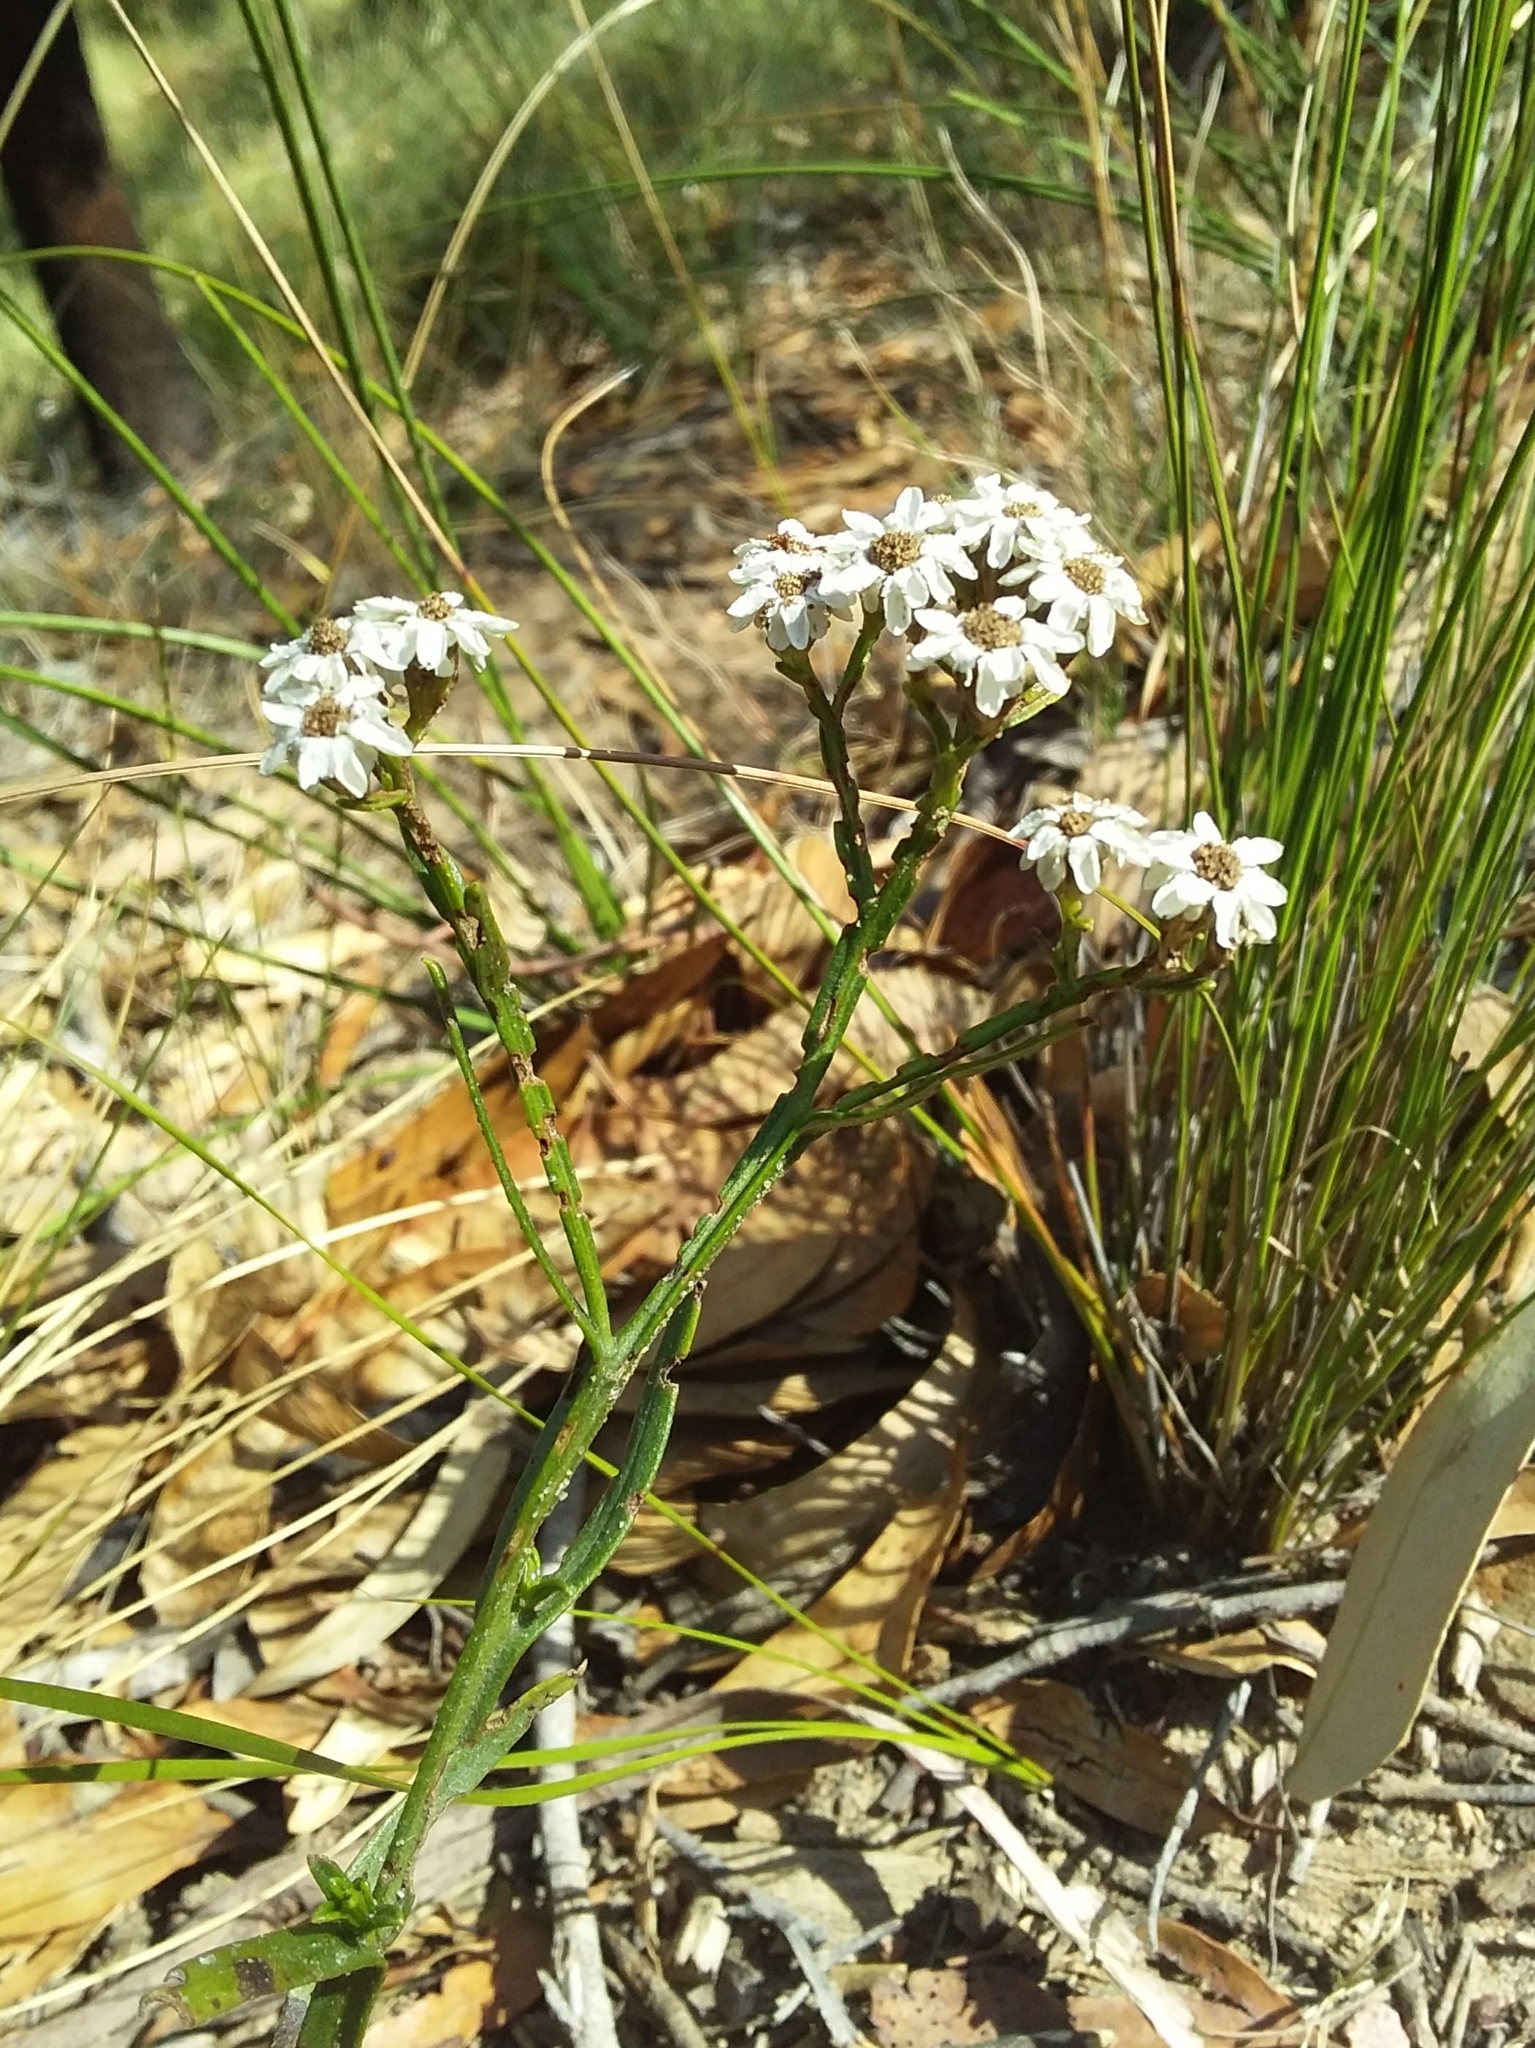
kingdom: Plantae
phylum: Tracheophyta
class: Magnoliopsida
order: Asterales
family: Asteraceae
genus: Ixodia
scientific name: Ixodia achillaeoides
